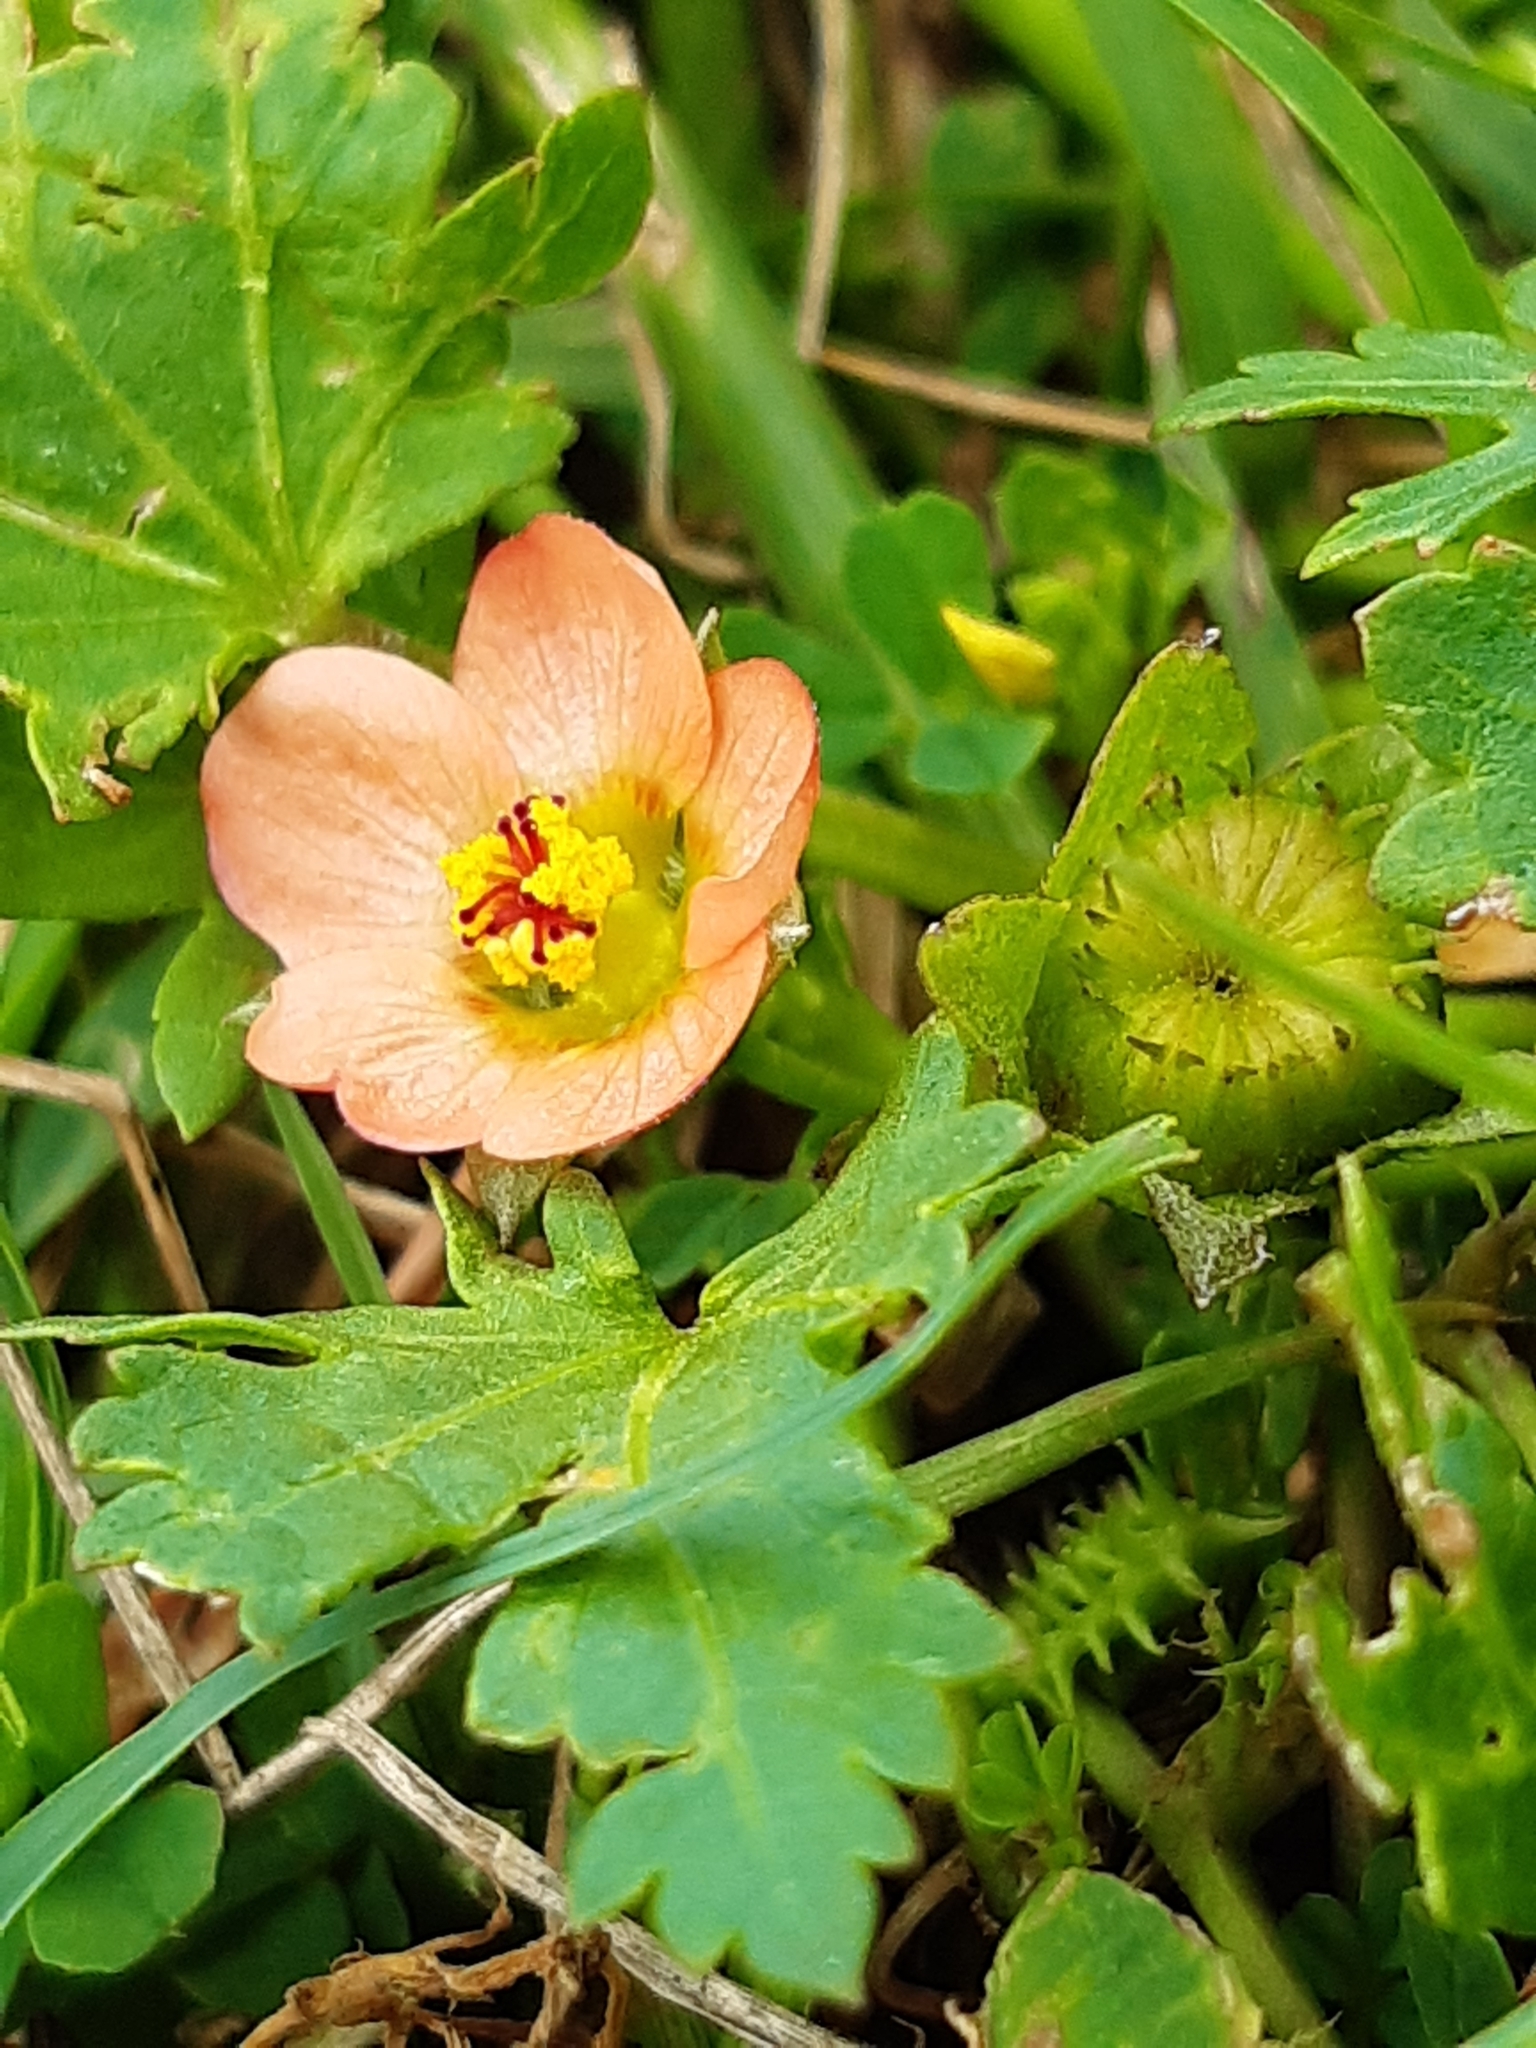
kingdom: Plantae
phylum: Tracheophyta
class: Magnoliopsida
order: Malvales
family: Malvaceae
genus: Modiola
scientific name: Modiola caroliniana
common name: Carolina bristlemallow
